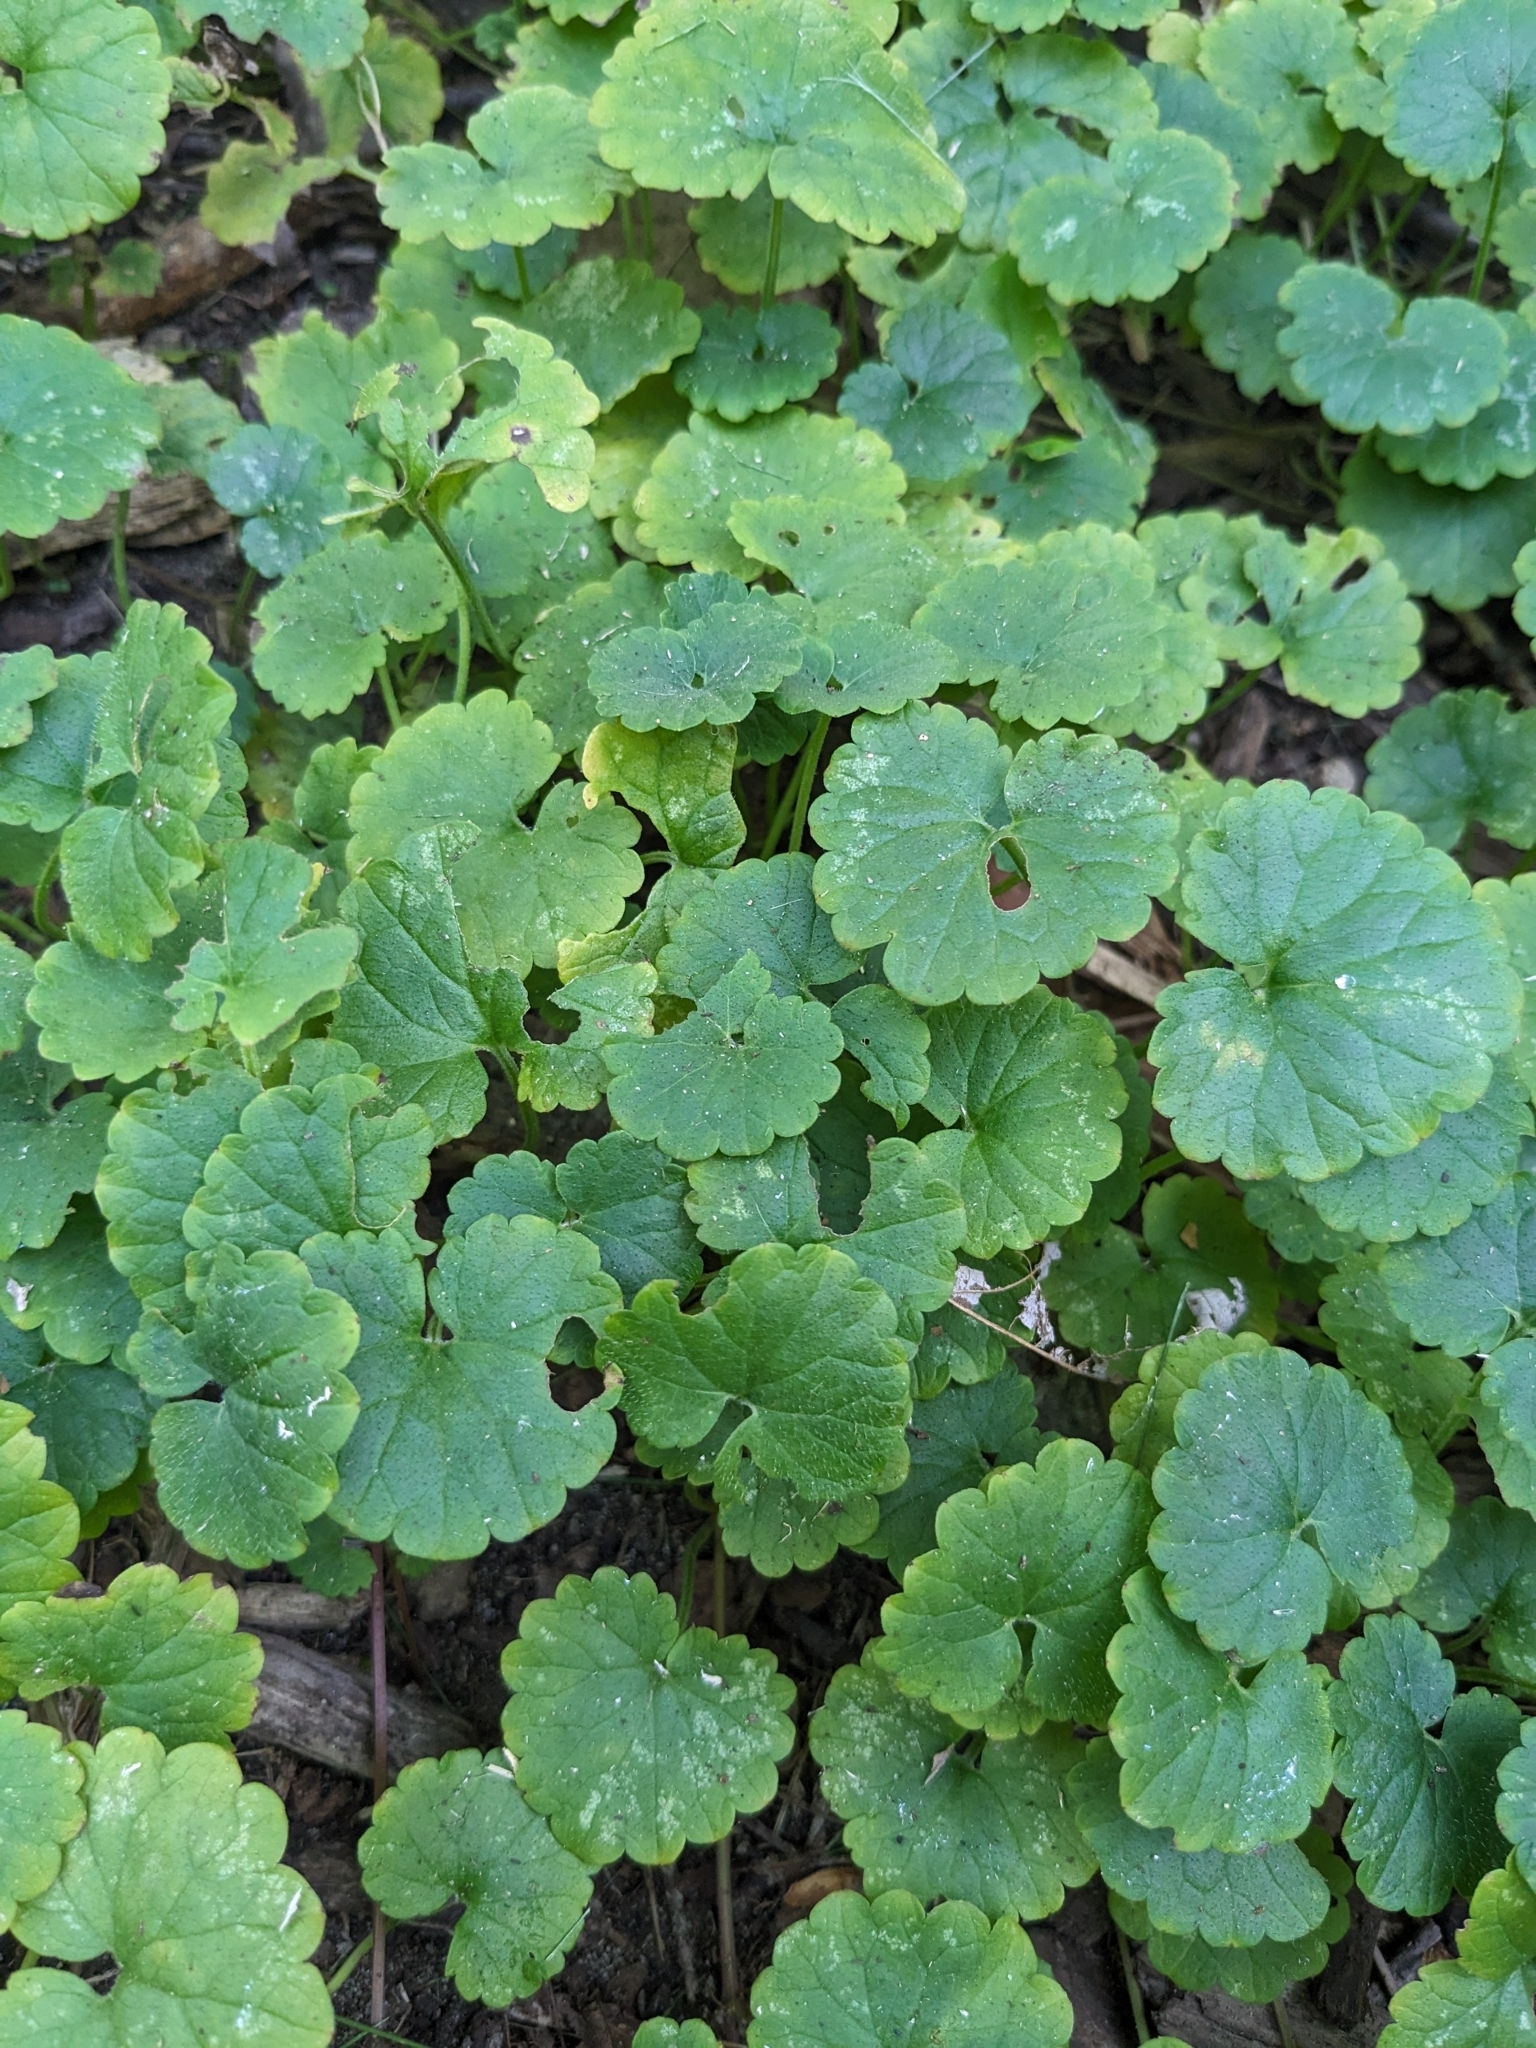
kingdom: Plantae
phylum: Tracheophyta
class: Magnoliopsida
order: Lamiales
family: Lamiaceae
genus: Glechoma
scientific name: Glechoma hederacea
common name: Ground ivy
